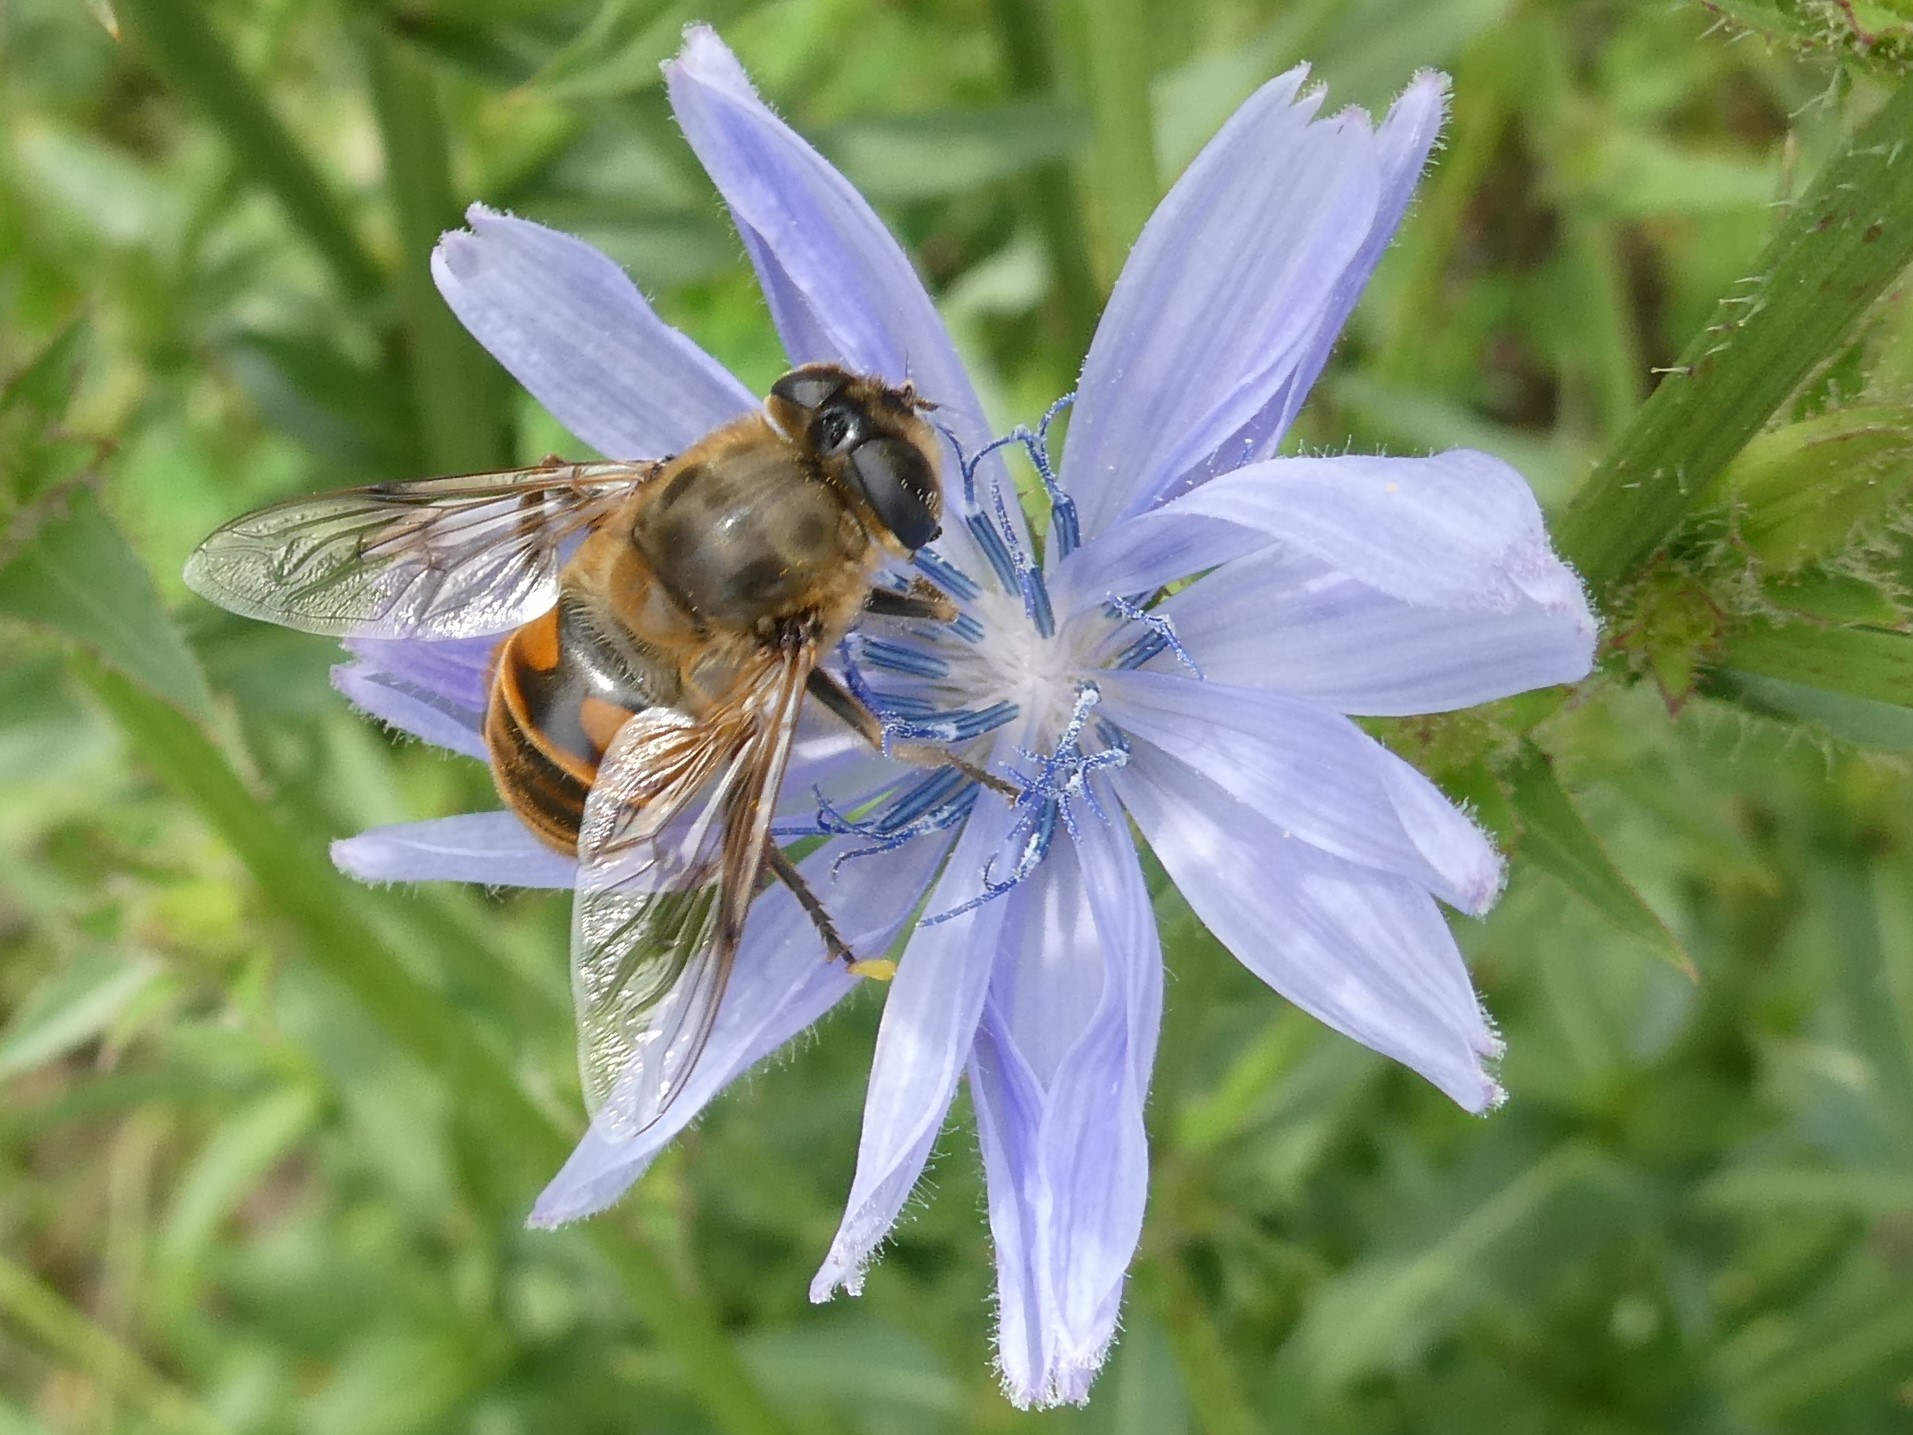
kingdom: Plantae
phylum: Tracheophyta
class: Magnoliopsida
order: Asterales
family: Asteraceae
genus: Cichorium
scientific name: Cichorium intybus
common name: Chicory
